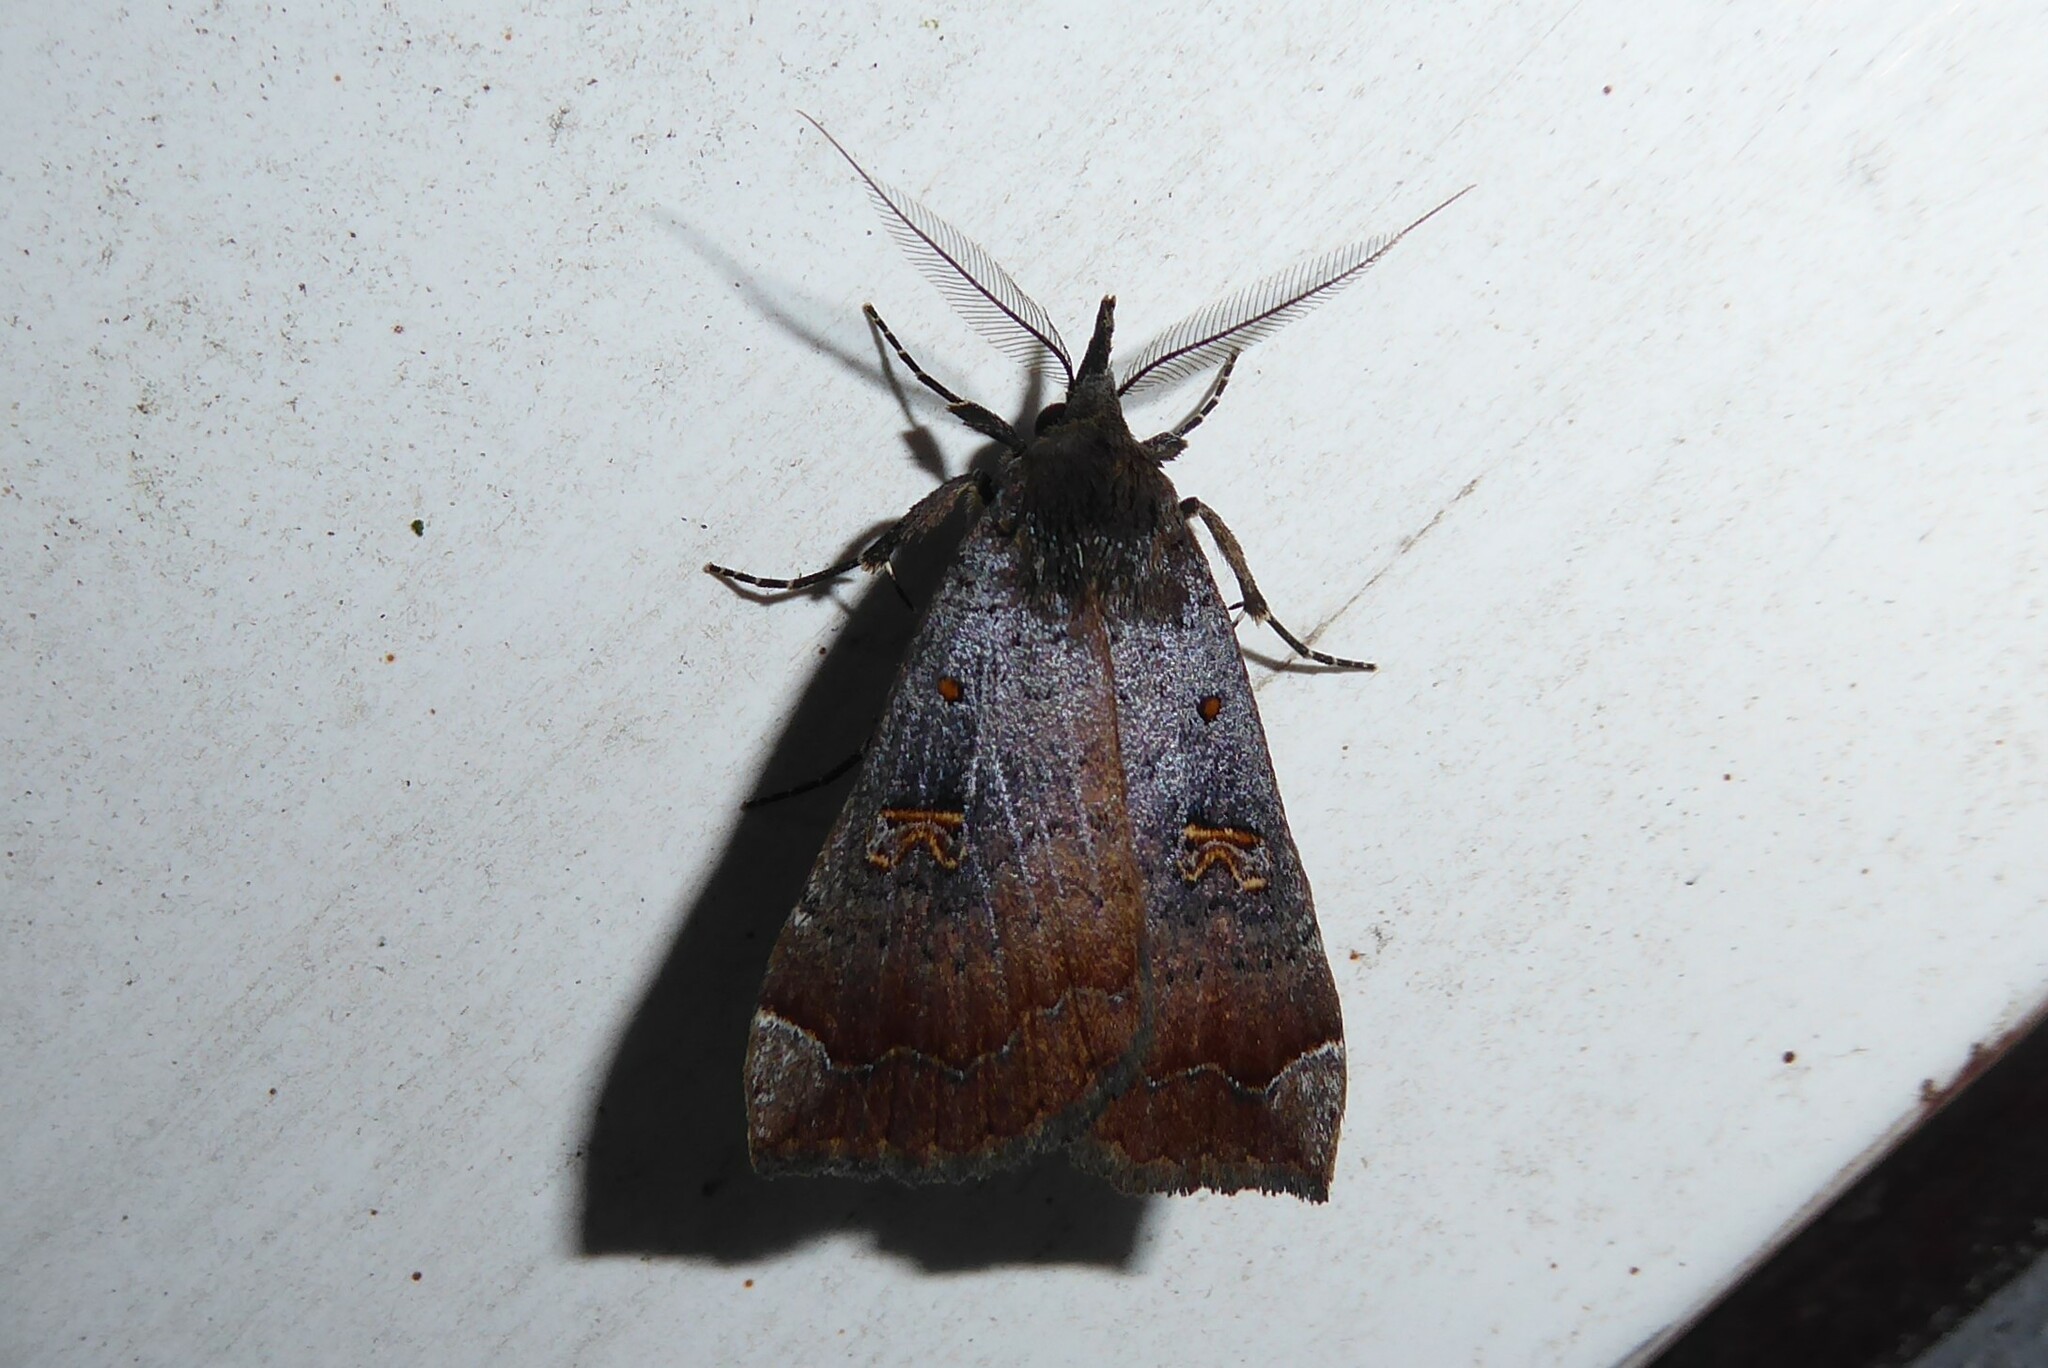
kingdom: Animalia
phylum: Arthropoda
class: Insecta
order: Lepidoptera
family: Erebidae
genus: Rhapsa
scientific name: Rhapsa scotosialis
